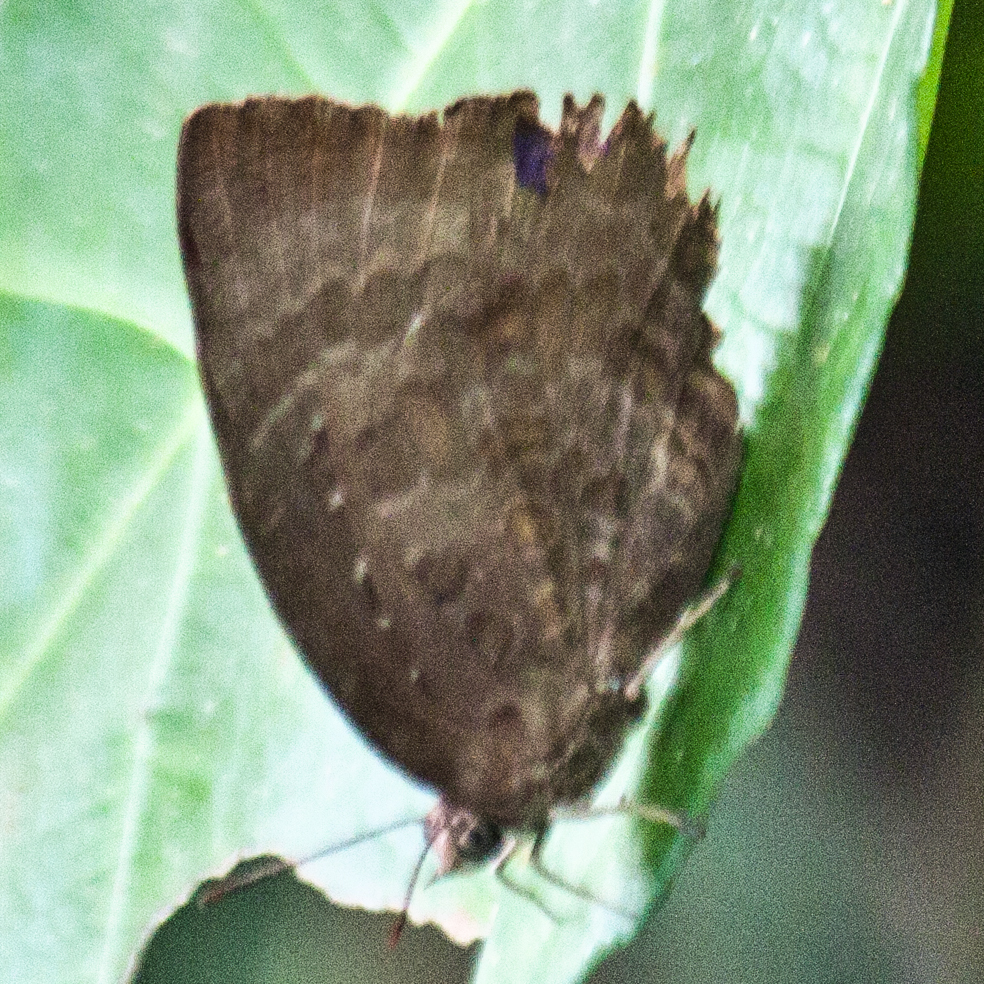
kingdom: Animalia
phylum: Arthropoda
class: Insecta
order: Lepidoptera
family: Lycaenidae
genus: Arhopala
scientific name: Arhopala centaurus
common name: Dull oak-blue
